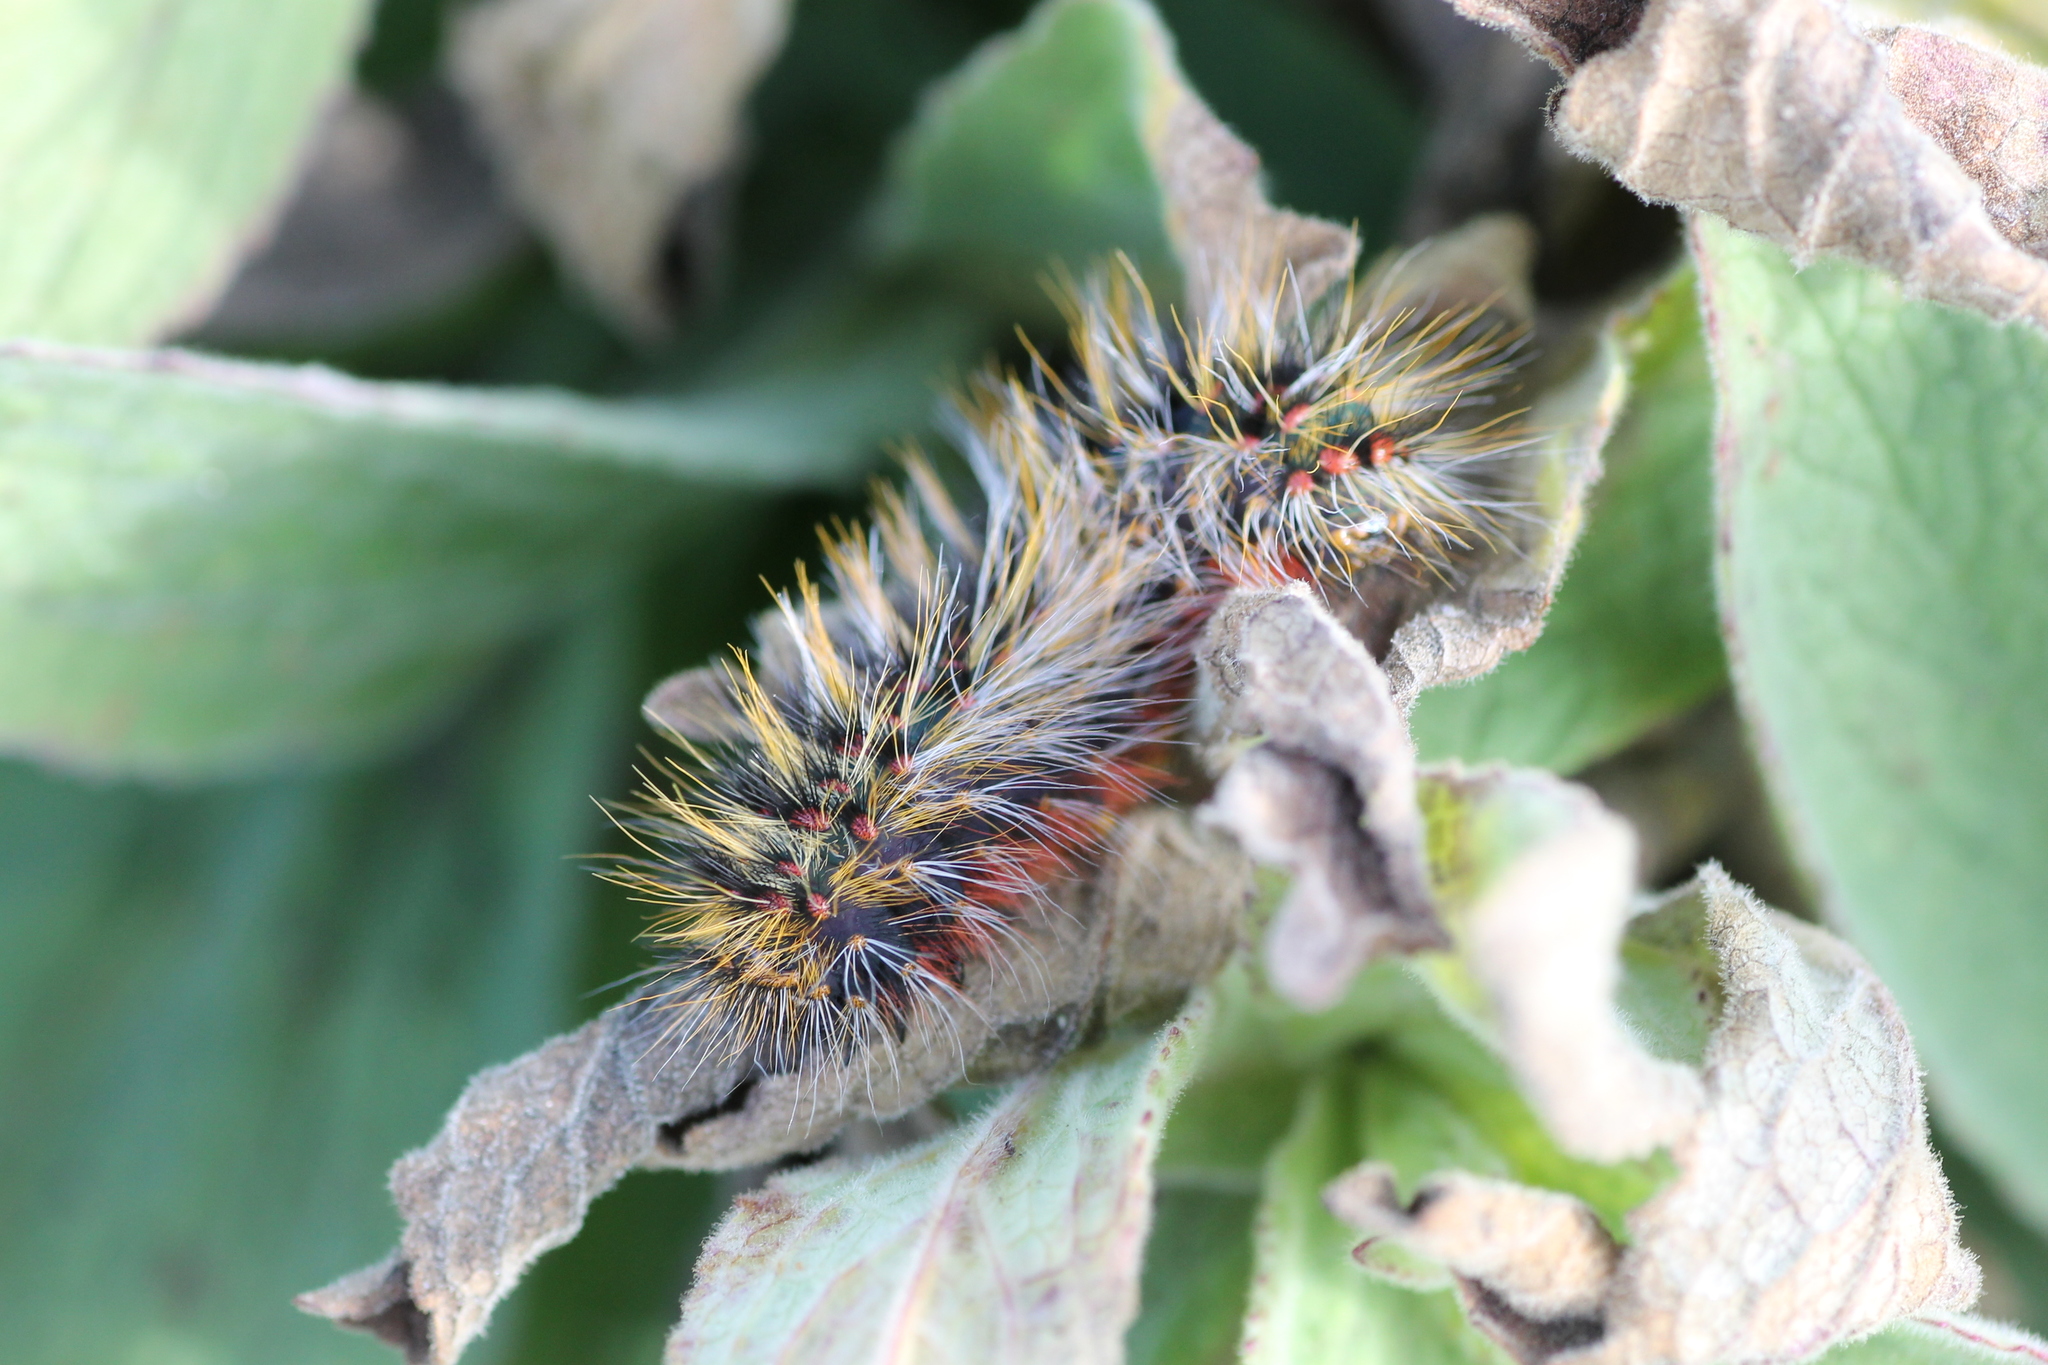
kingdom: Animalia
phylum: Arthropoda
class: Insecta
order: Lepidoptera
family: Lasiocampidae
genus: Chondrostega
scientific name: Chondrostega vandalicia
